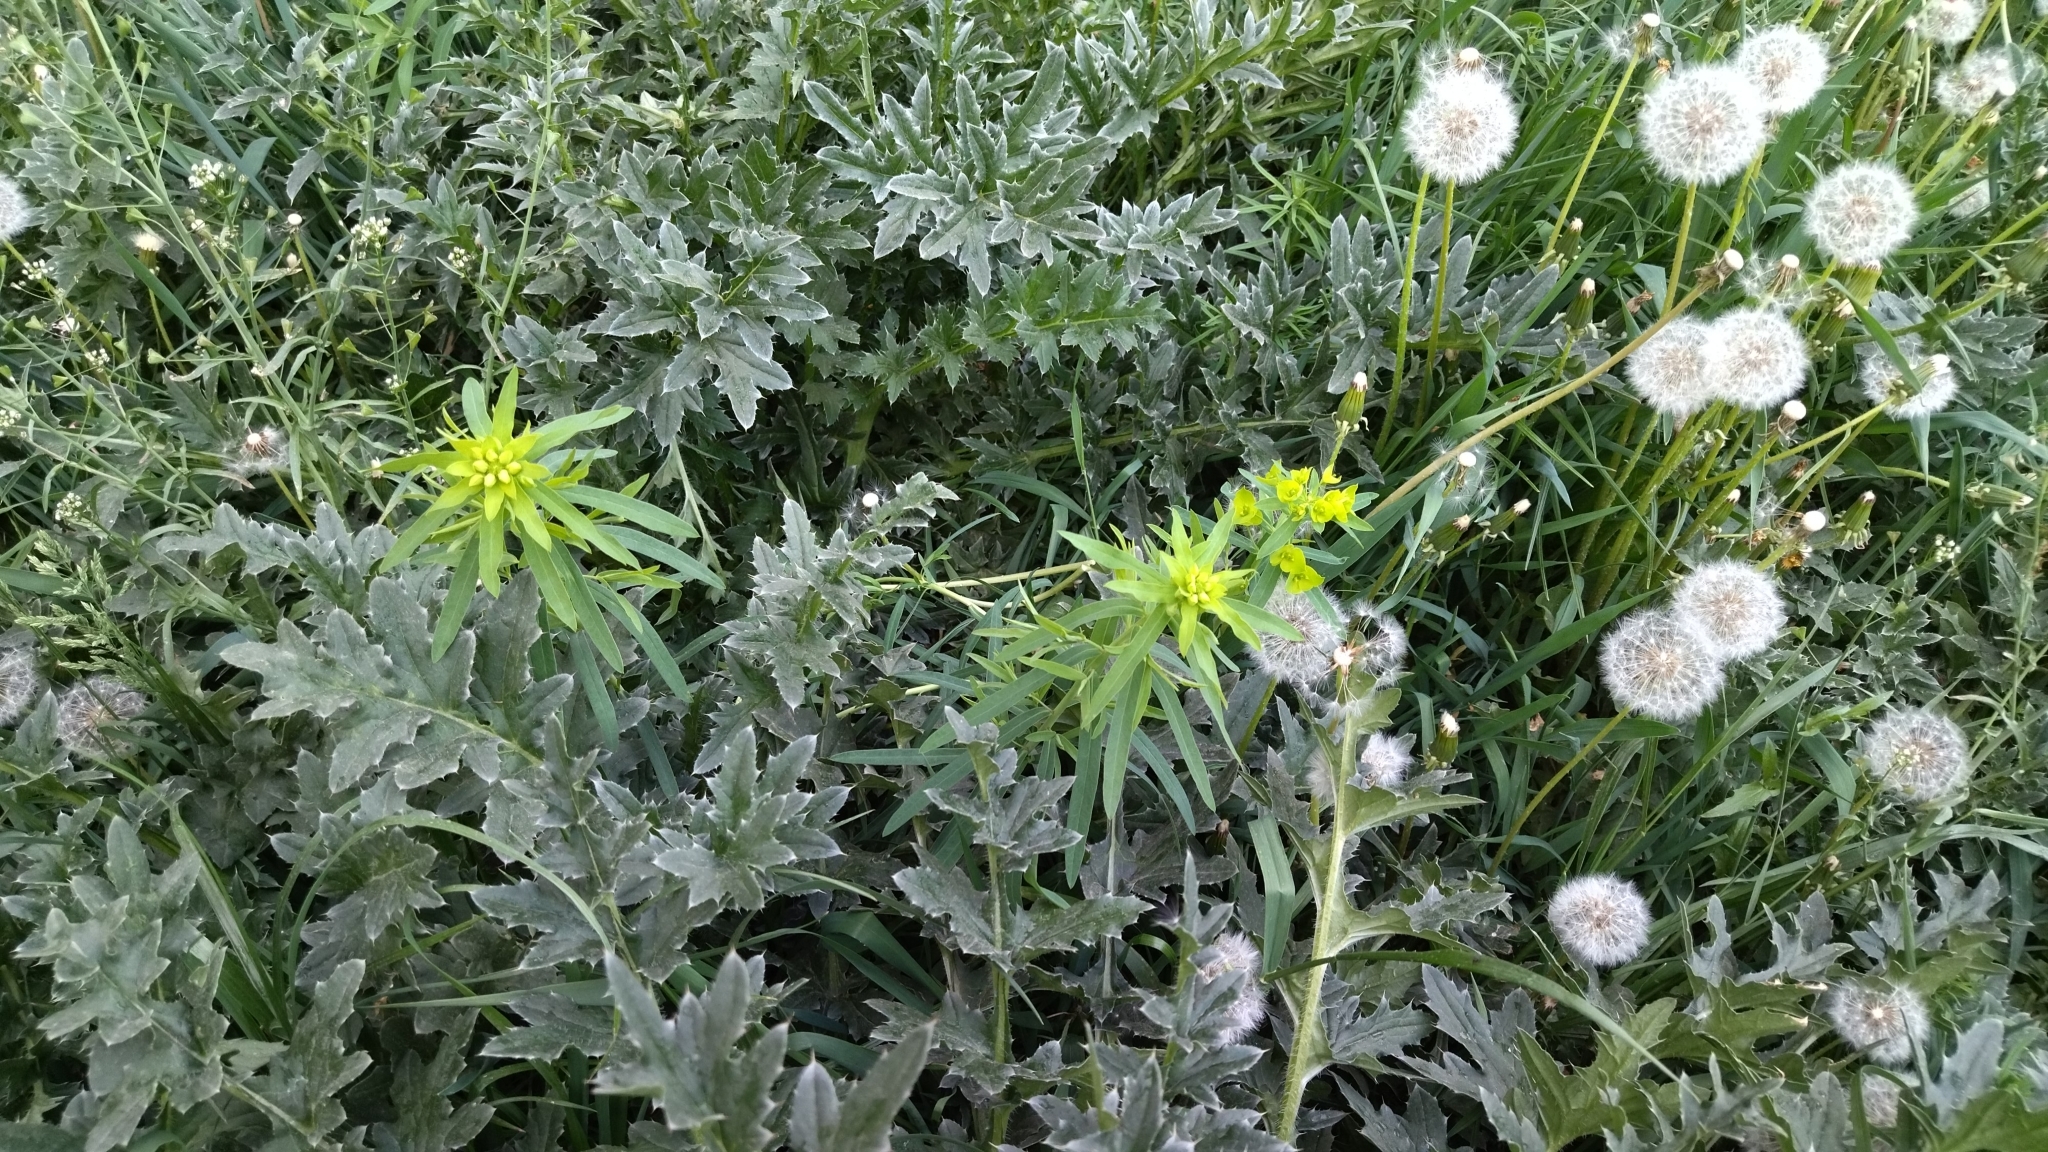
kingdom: Plantae
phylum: Tracheophyta
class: Magnoliopsida
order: Malpighiales
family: Euphorbiaceae
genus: Euphorbia
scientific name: Euphorbia virgata
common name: Leafy spurge
